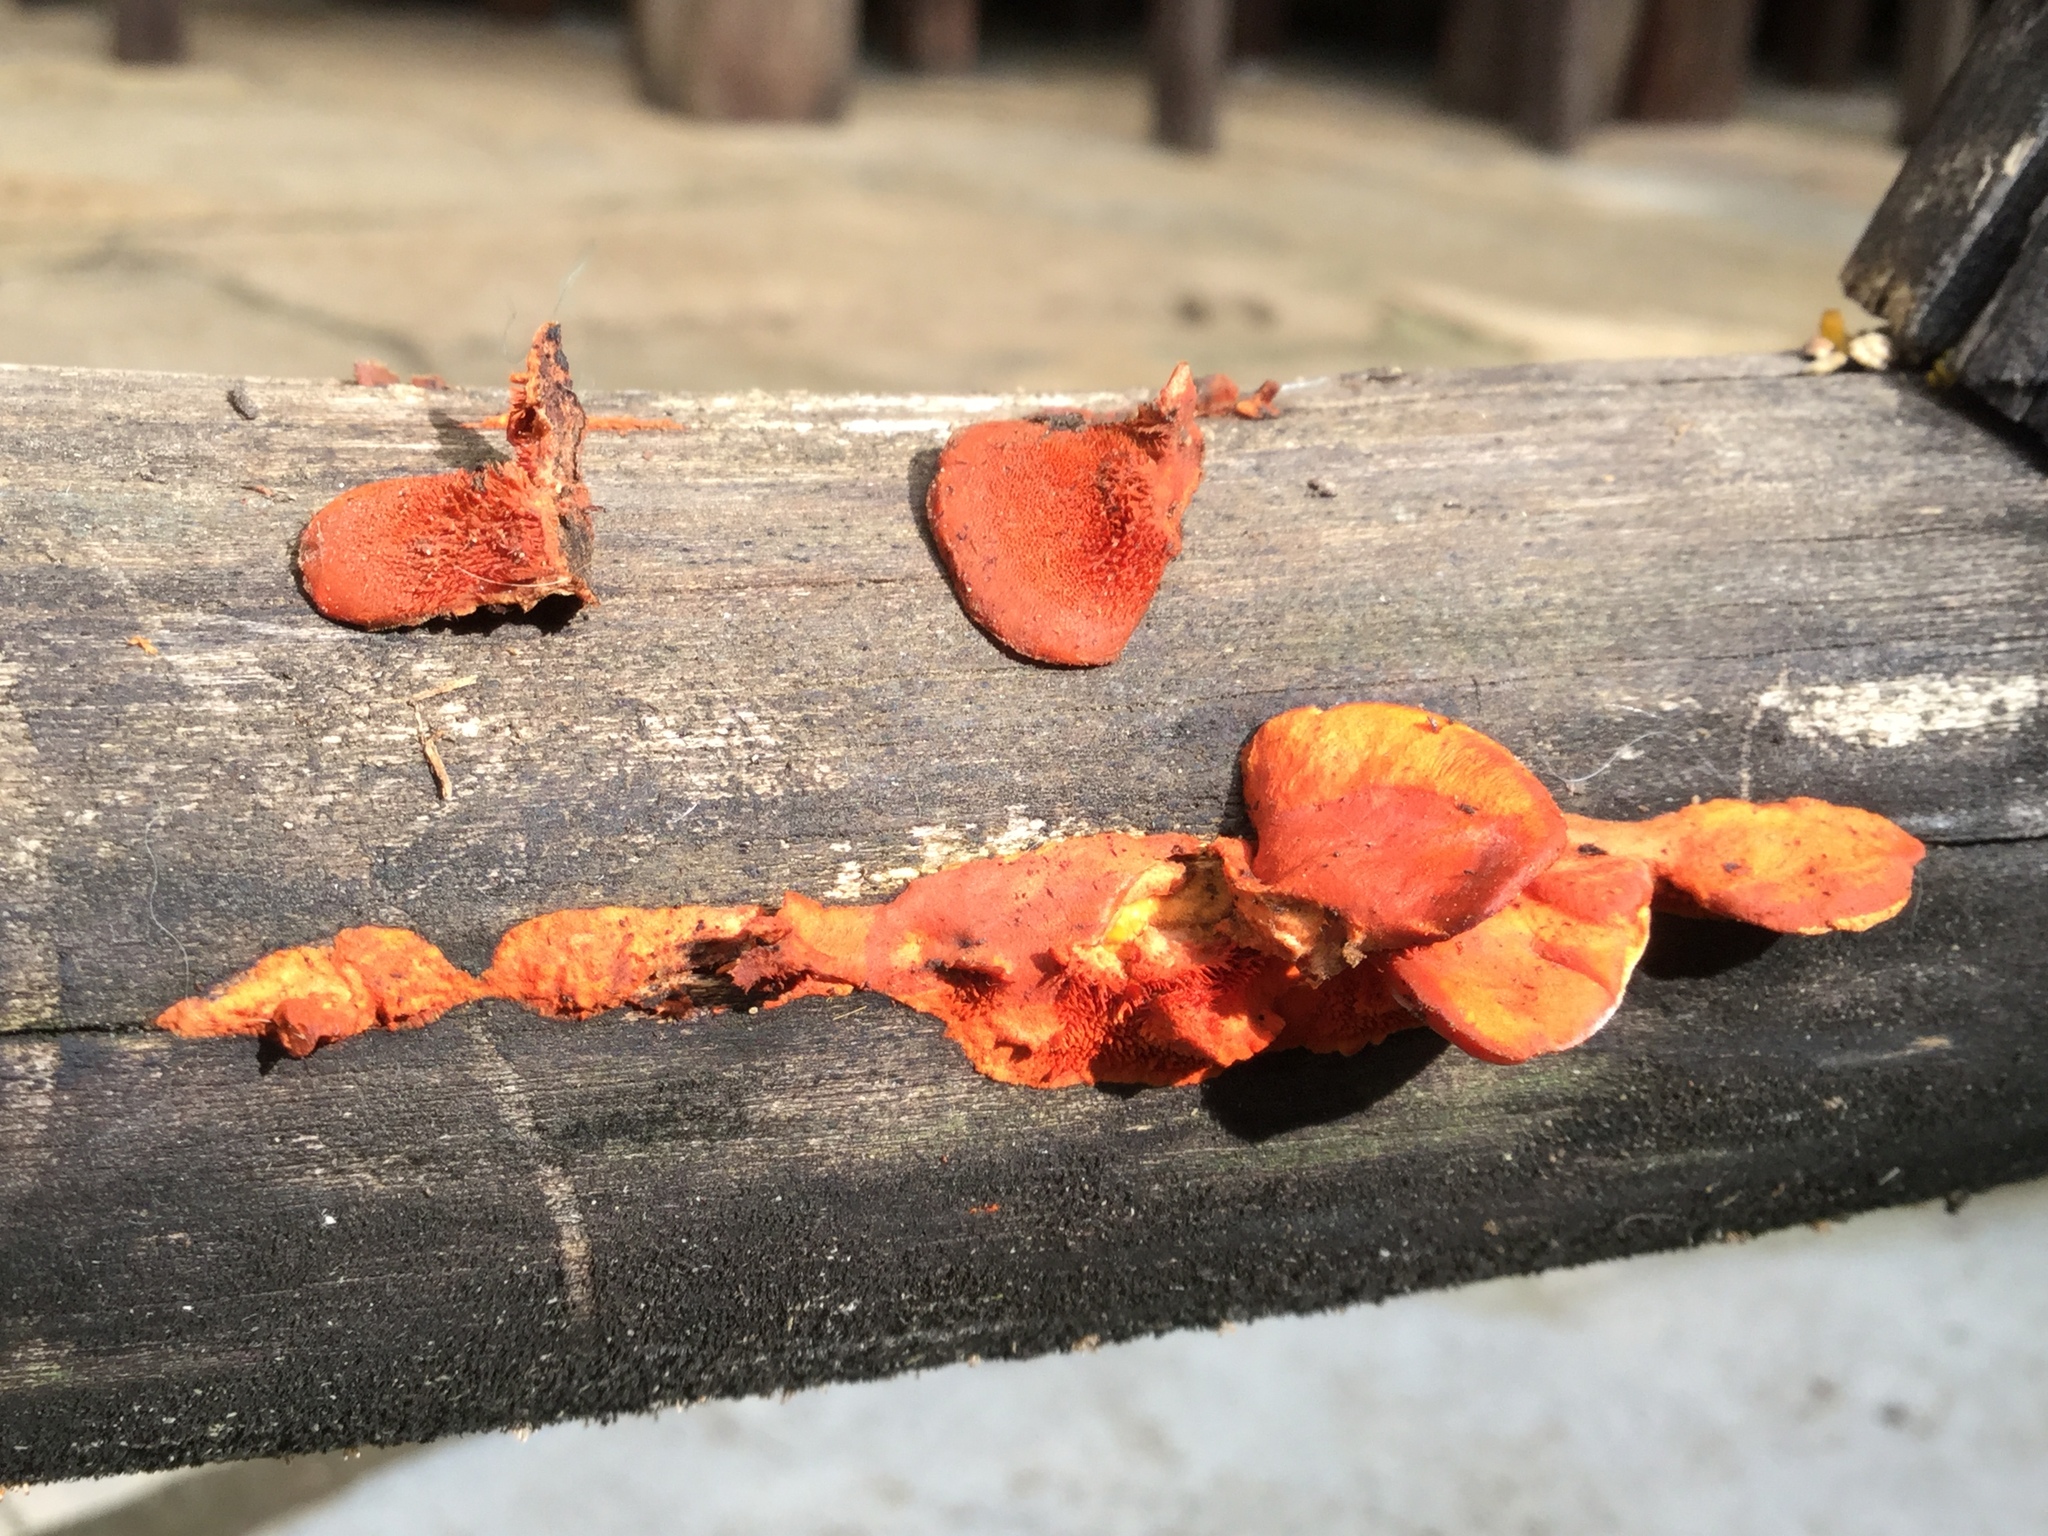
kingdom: Fungi
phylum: Basidiomycota
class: Agaricomycetes
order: Polyporales
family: Polyporaceae
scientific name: Polyporaceae
